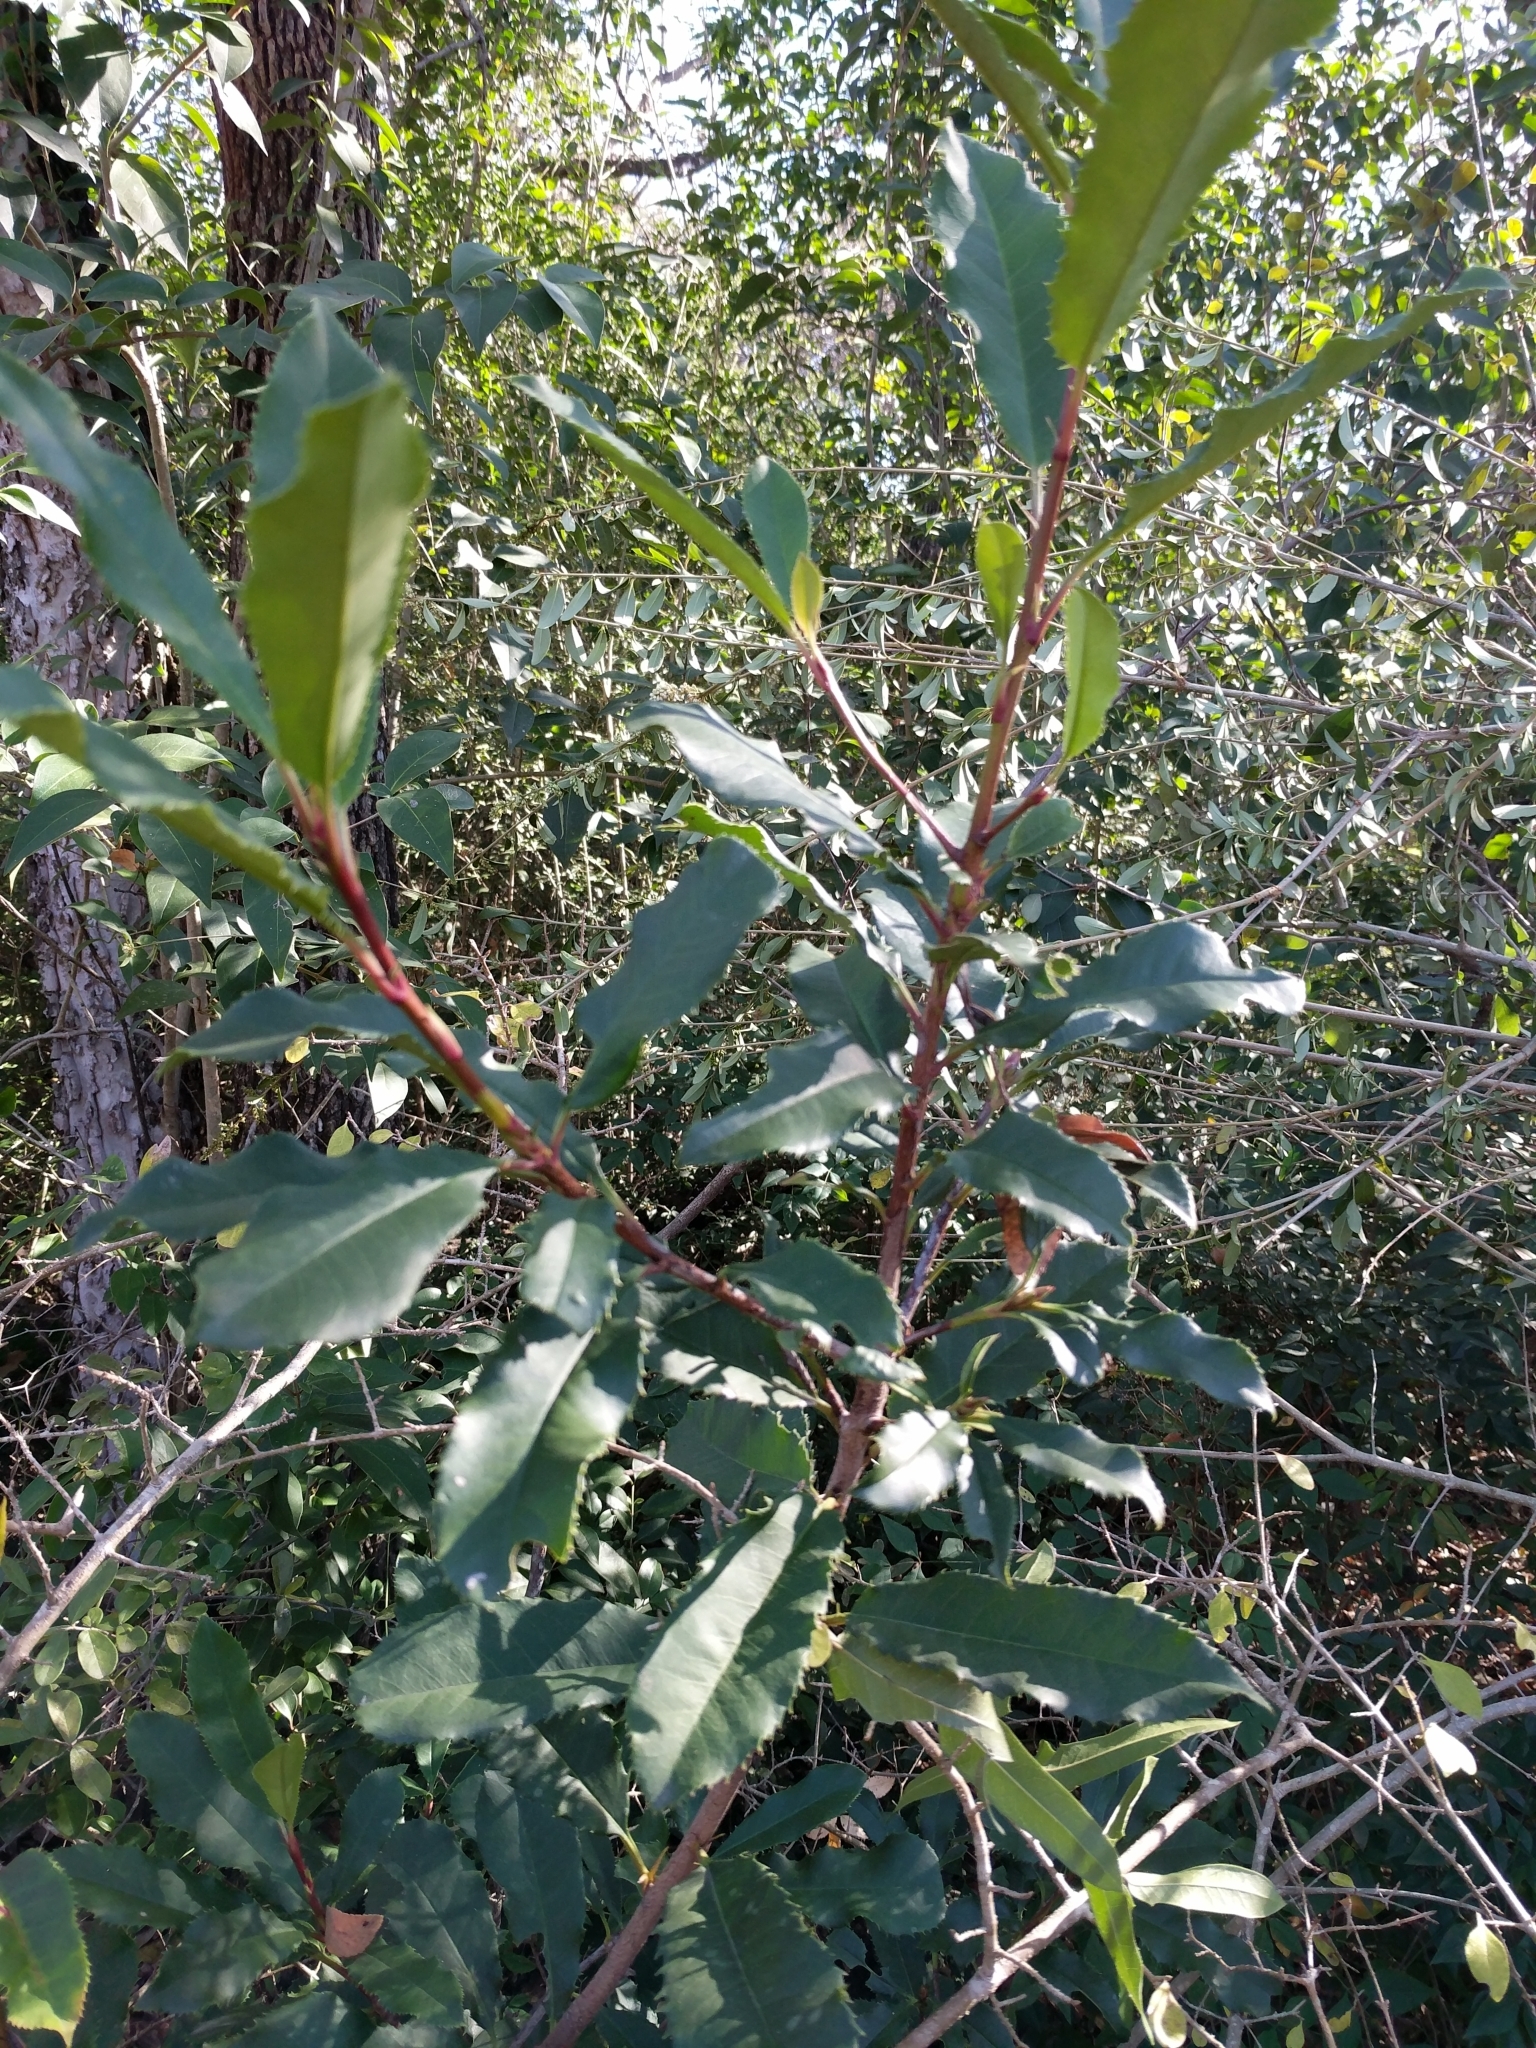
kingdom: Plantae
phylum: Tracheophyta
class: Magnoliopsida
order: Rosales
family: Rosaceae
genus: Photinia
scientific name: Photinia serratifolia
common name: Taiwanese photinia
